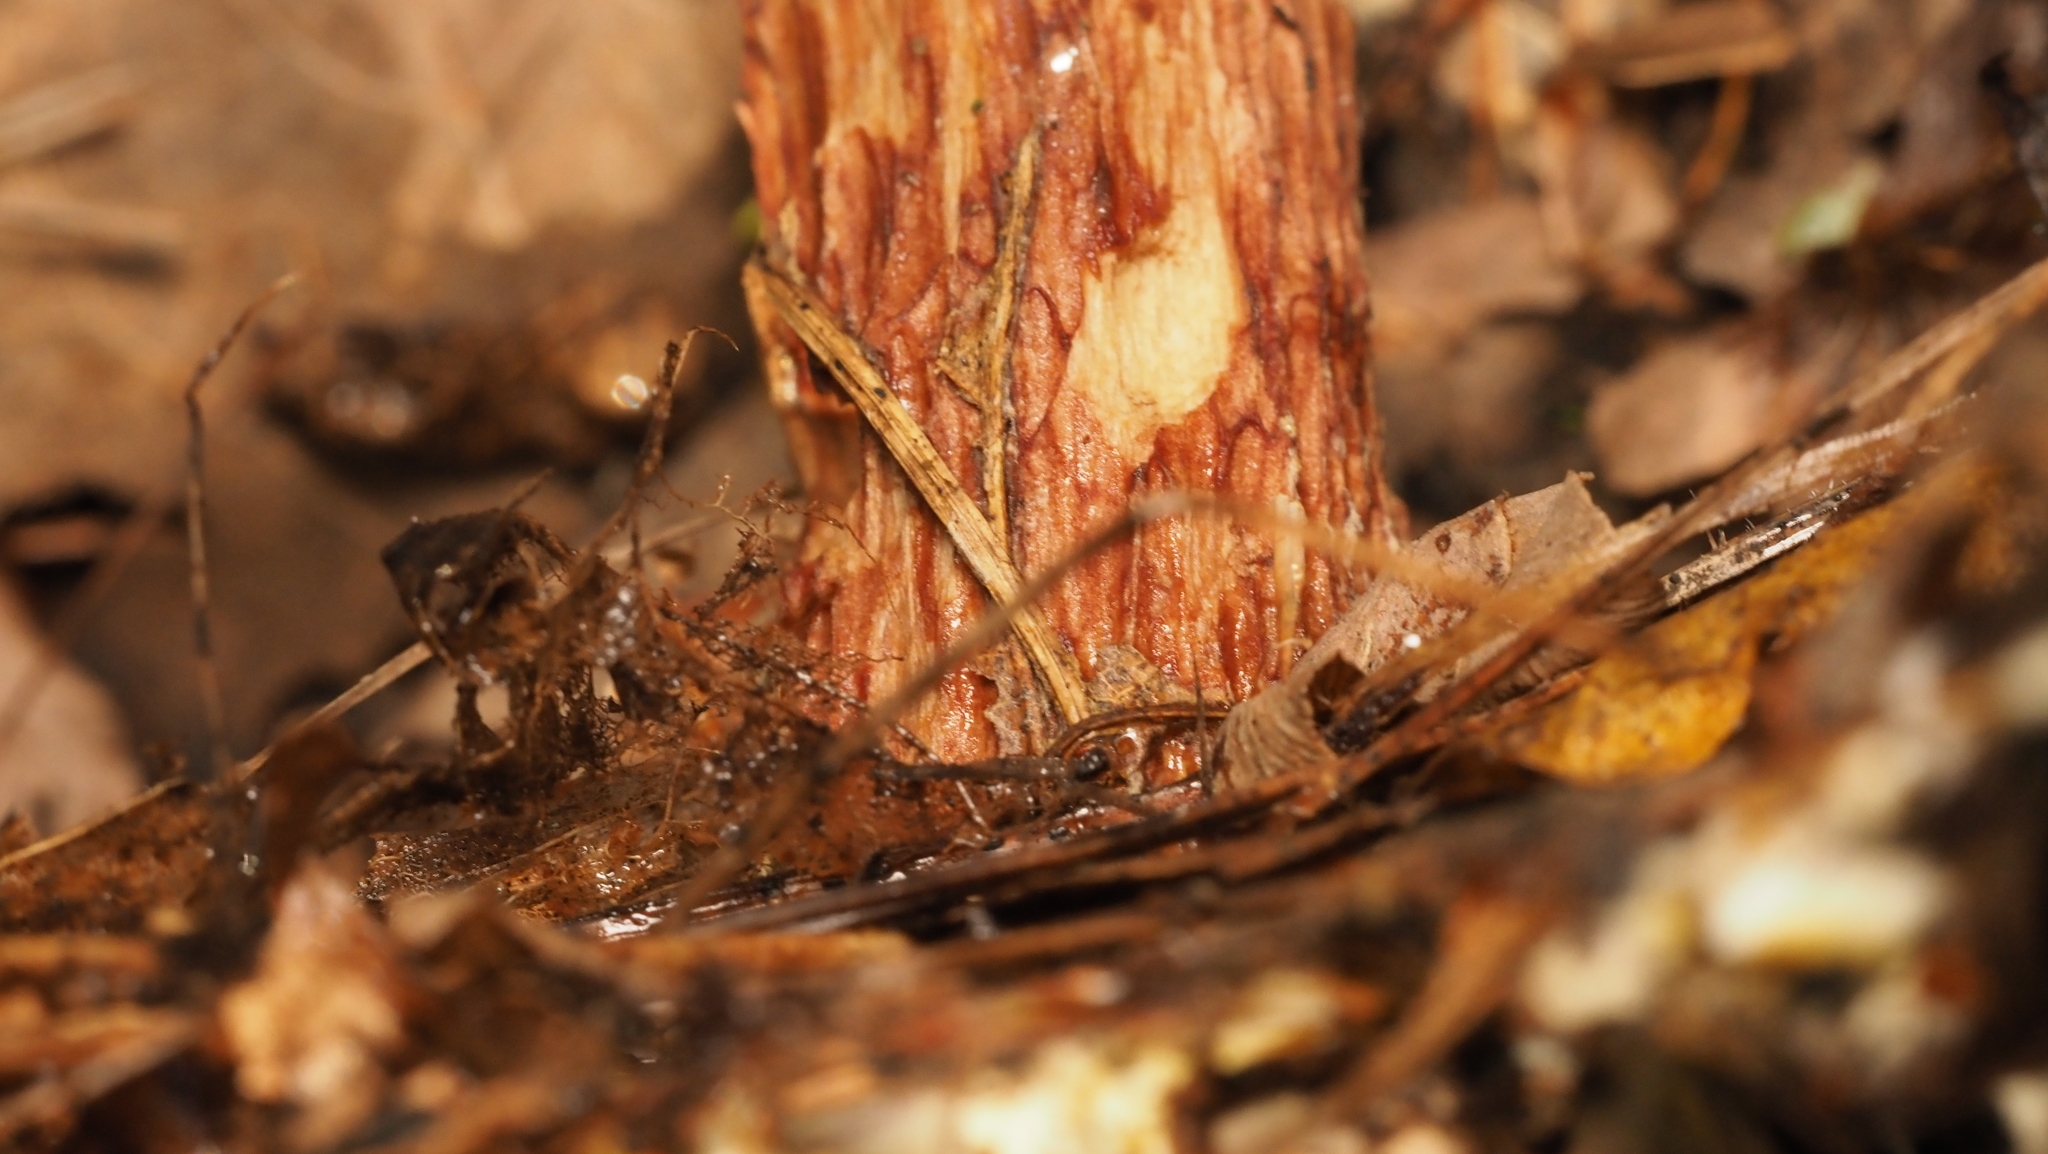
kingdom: Fungi
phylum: Basidiomycota
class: Agaricomycetes
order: Boletales
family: Boletaceae
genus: Aureoboletus
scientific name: Aureoboletus russellii
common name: Russell's bolete
